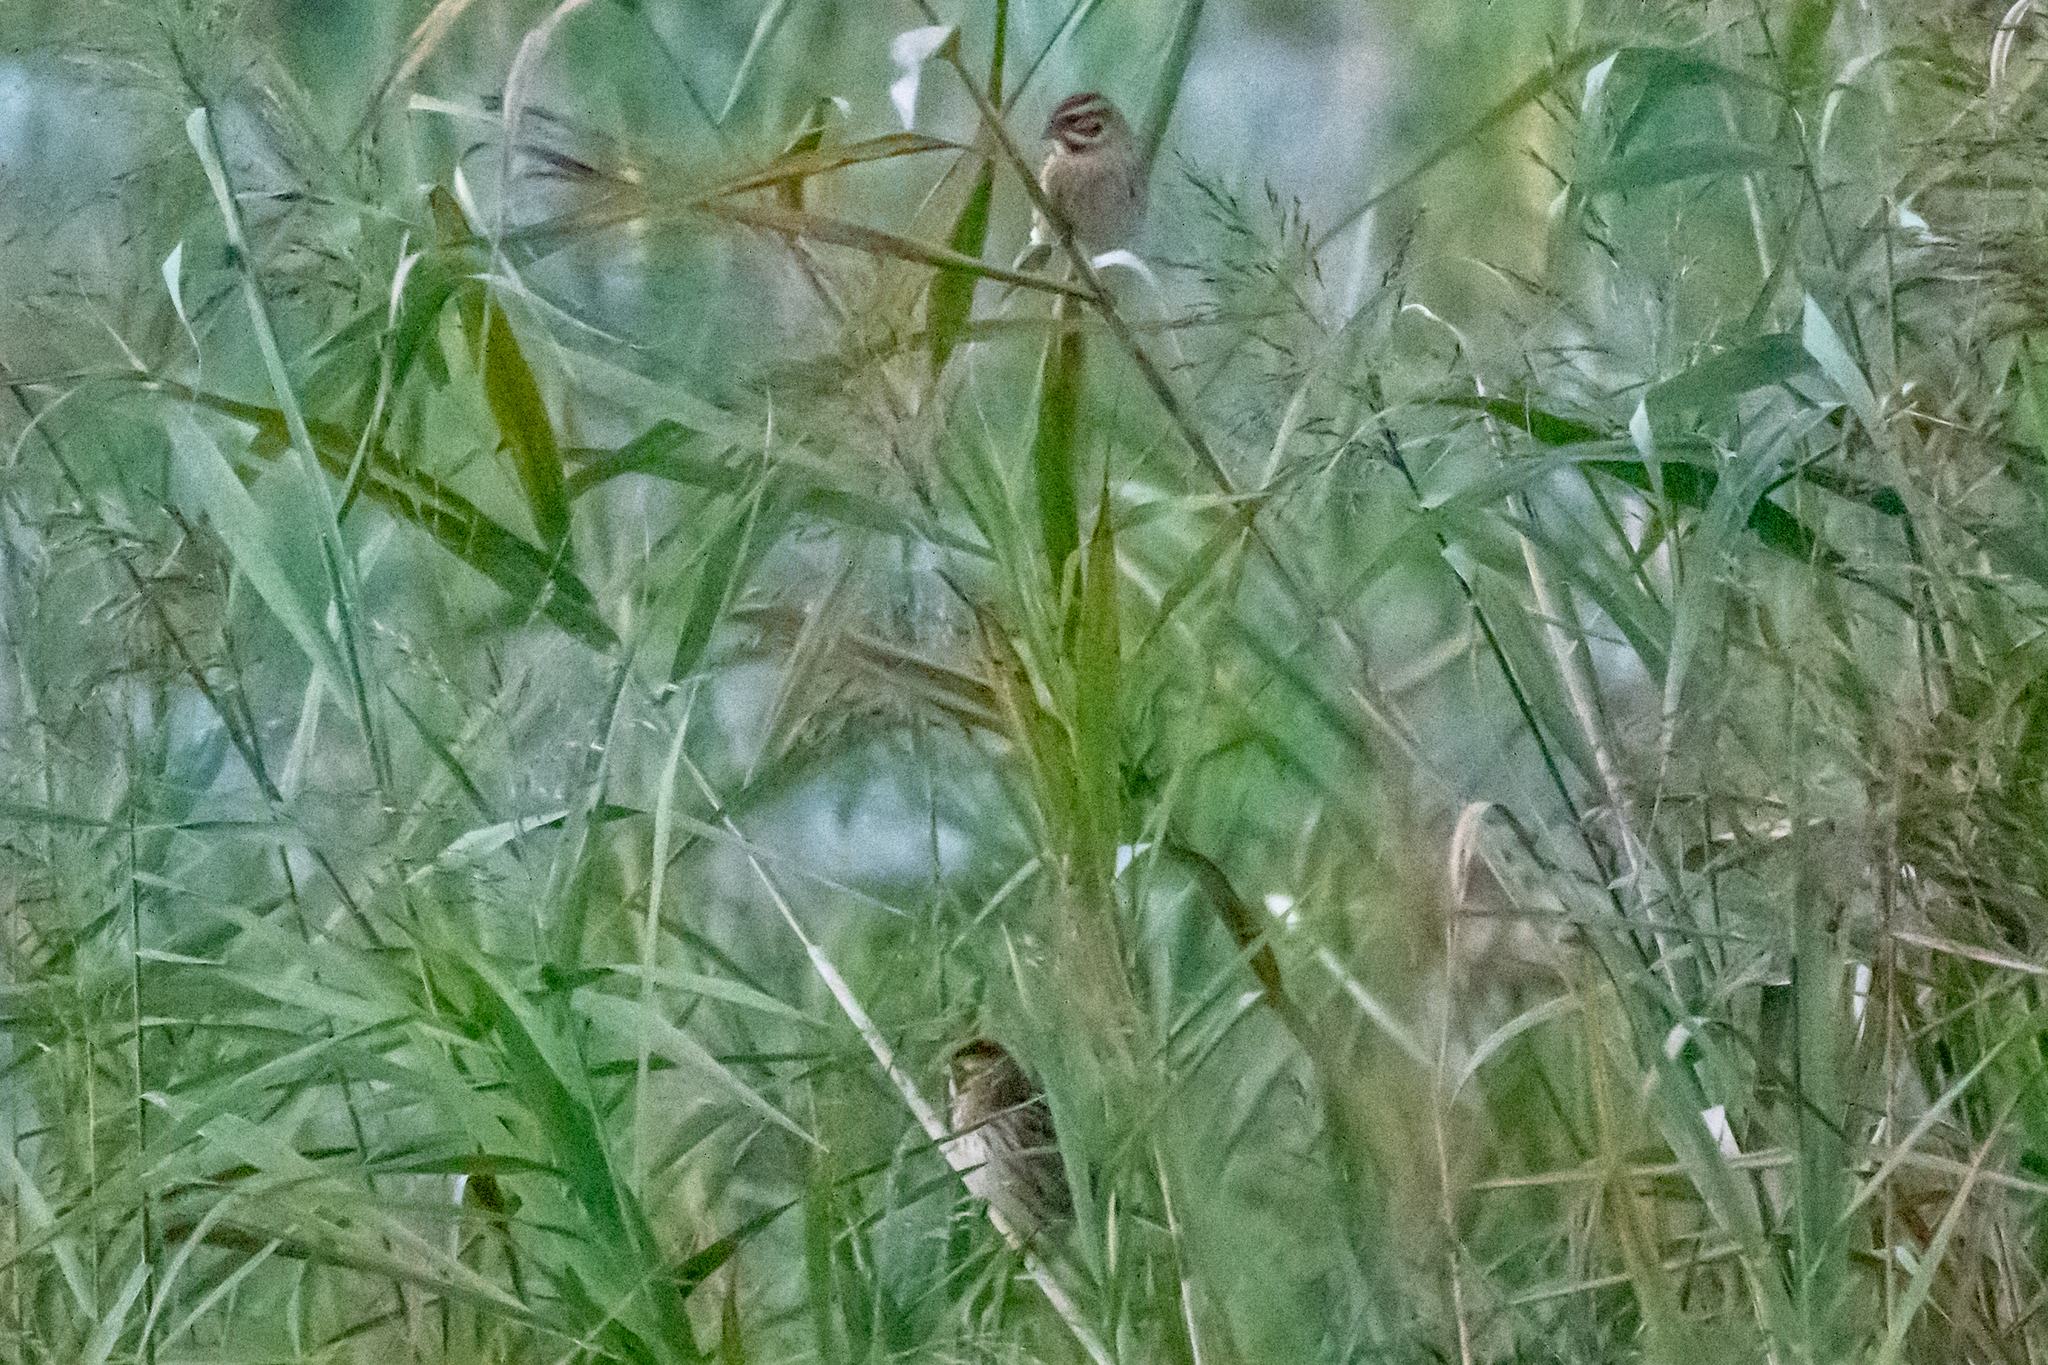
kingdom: Animalia
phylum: Chordata
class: Aves
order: Passeriformes
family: Emberizidae
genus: Emberiza
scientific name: Emberiza schoeniclus
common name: Reed bunting
